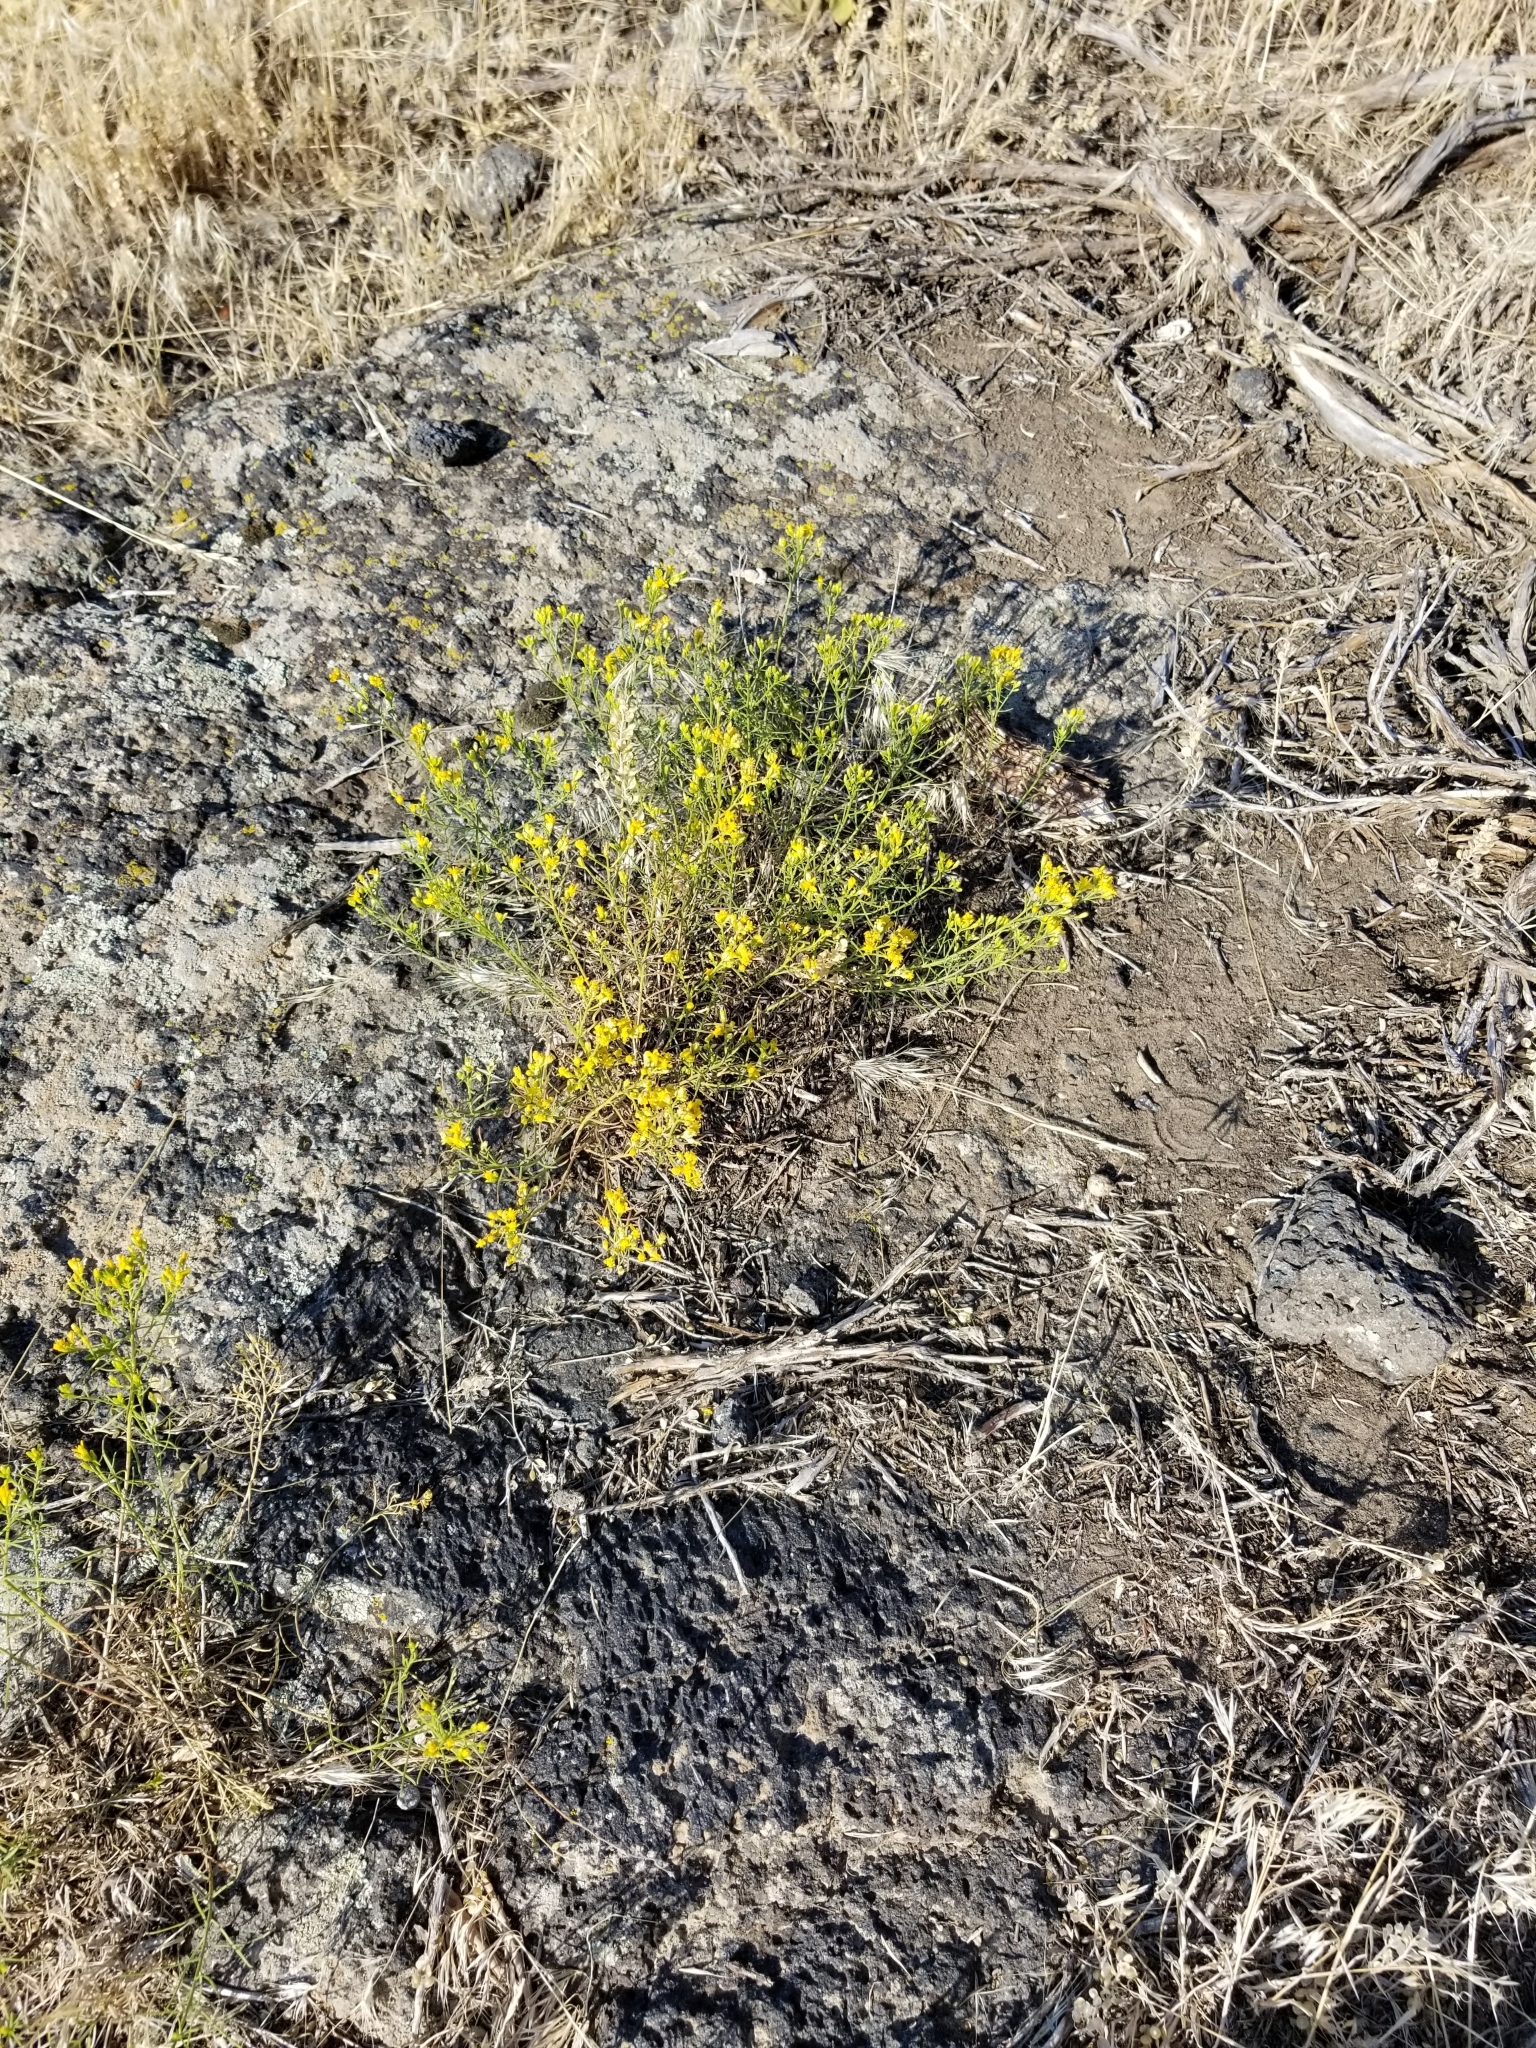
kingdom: Plantae
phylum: Tracheophyta
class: Magnoliopsida
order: Asterales
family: Asteraceae
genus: Gutierrezia
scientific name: Gutierrezia sarothrae
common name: Broom snakeweed
